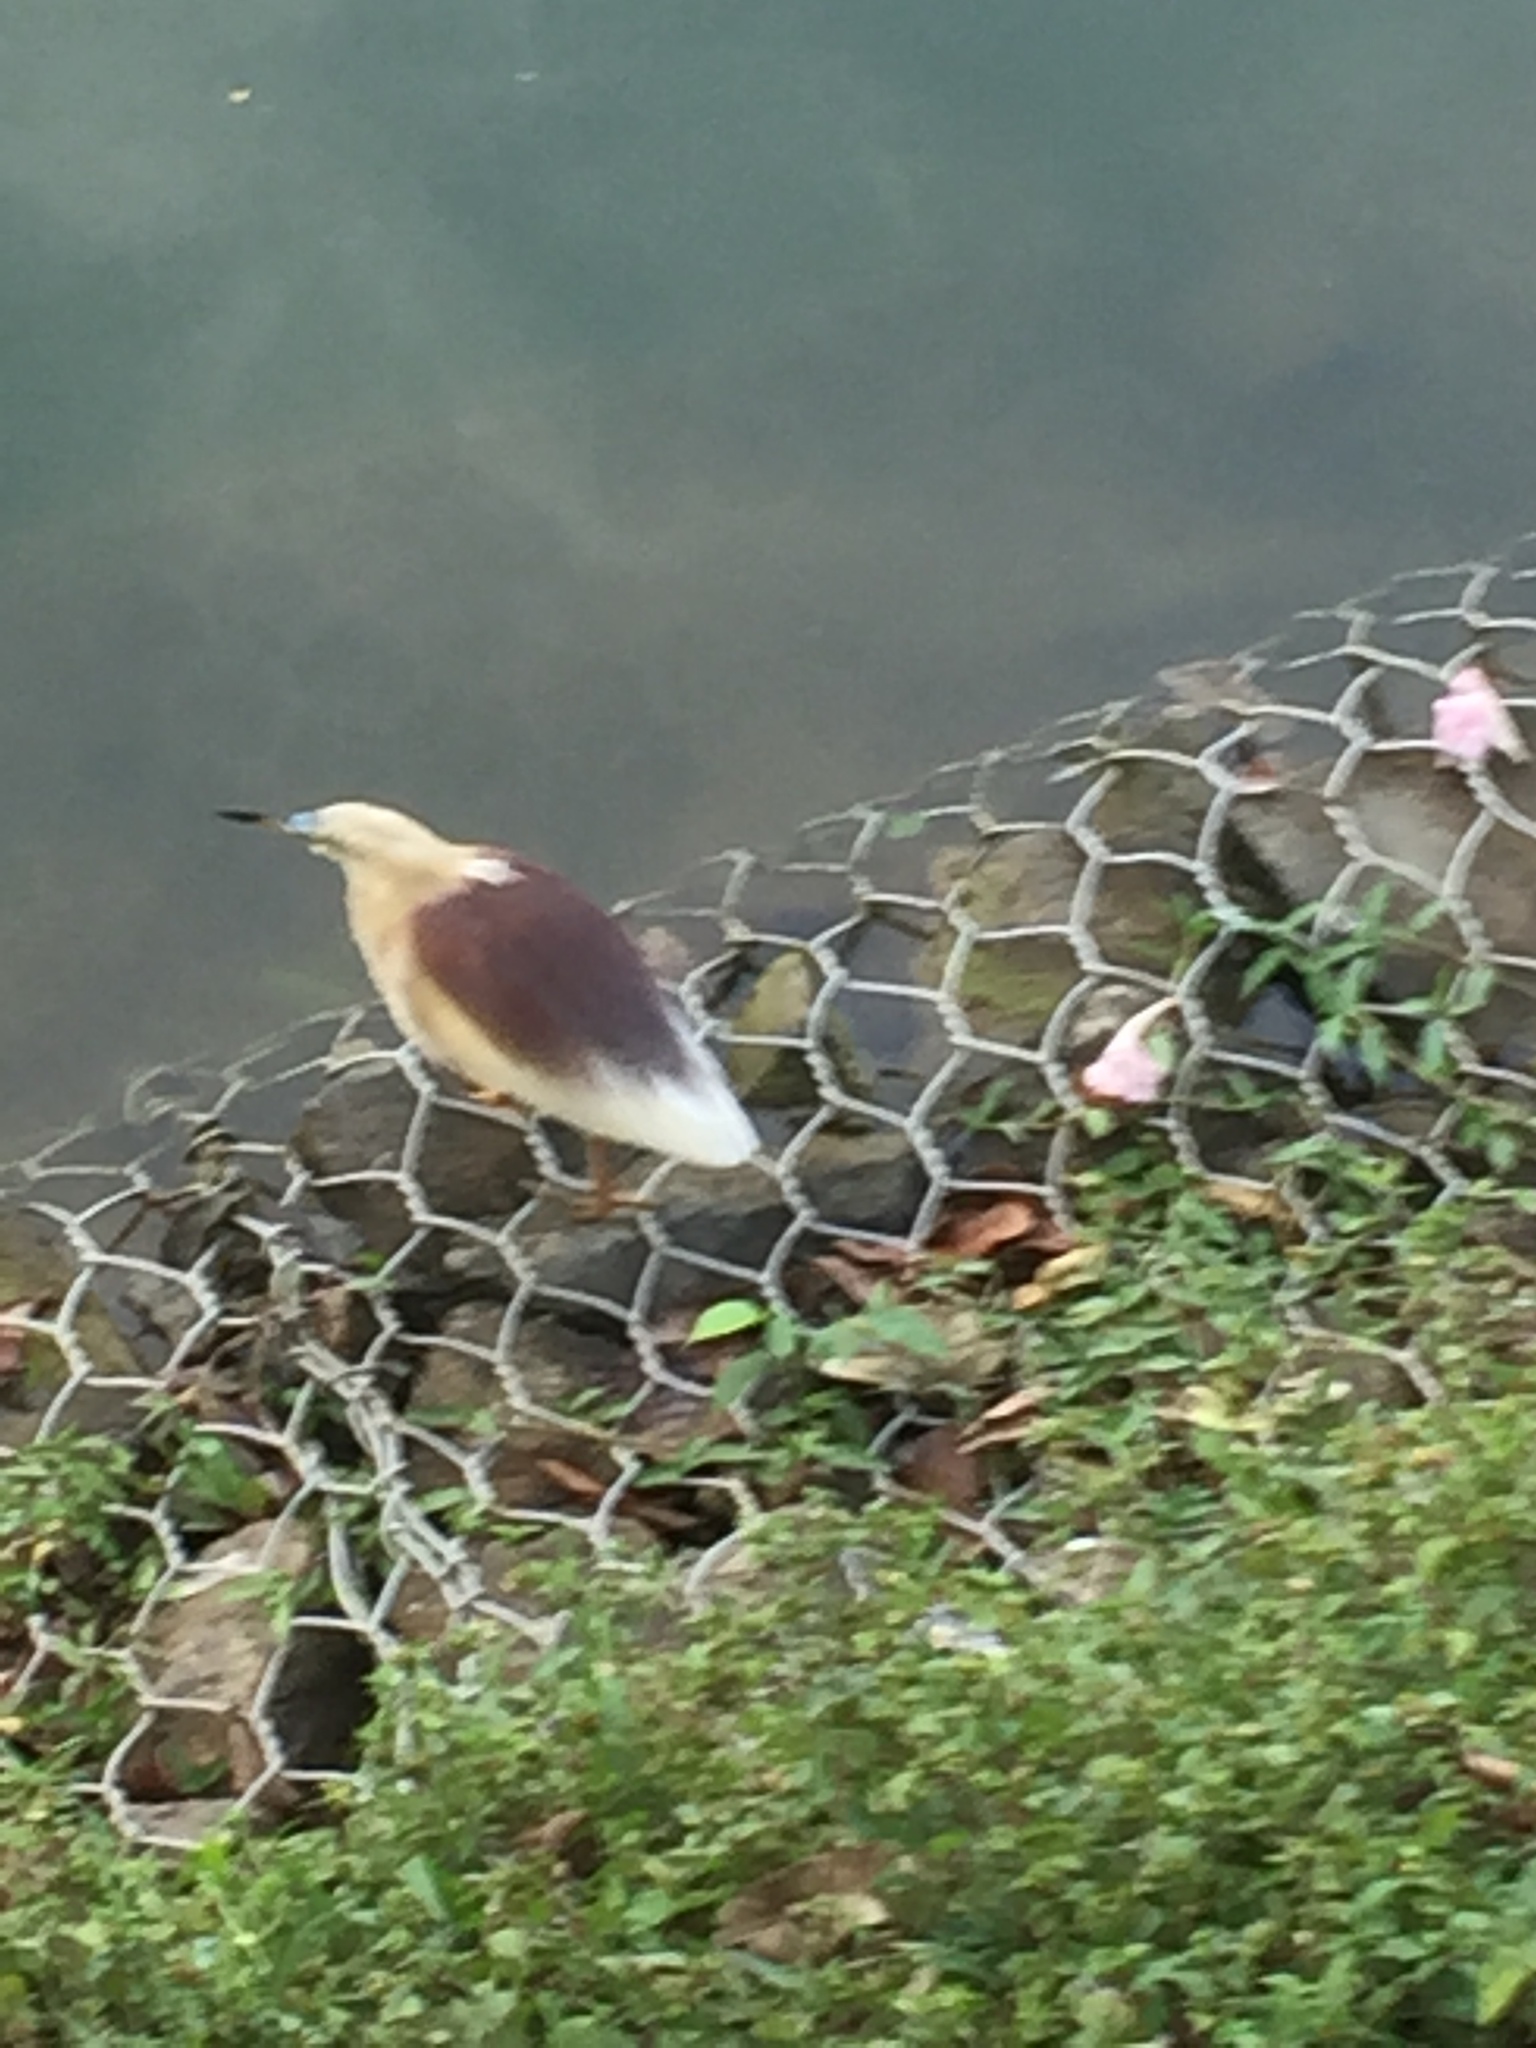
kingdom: Animalia
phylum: Chordata
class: Aves
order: Pelecaniformes
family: Ardeidae
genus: Ardeola
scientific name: Ardeola grayii
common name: Indian pond heron
